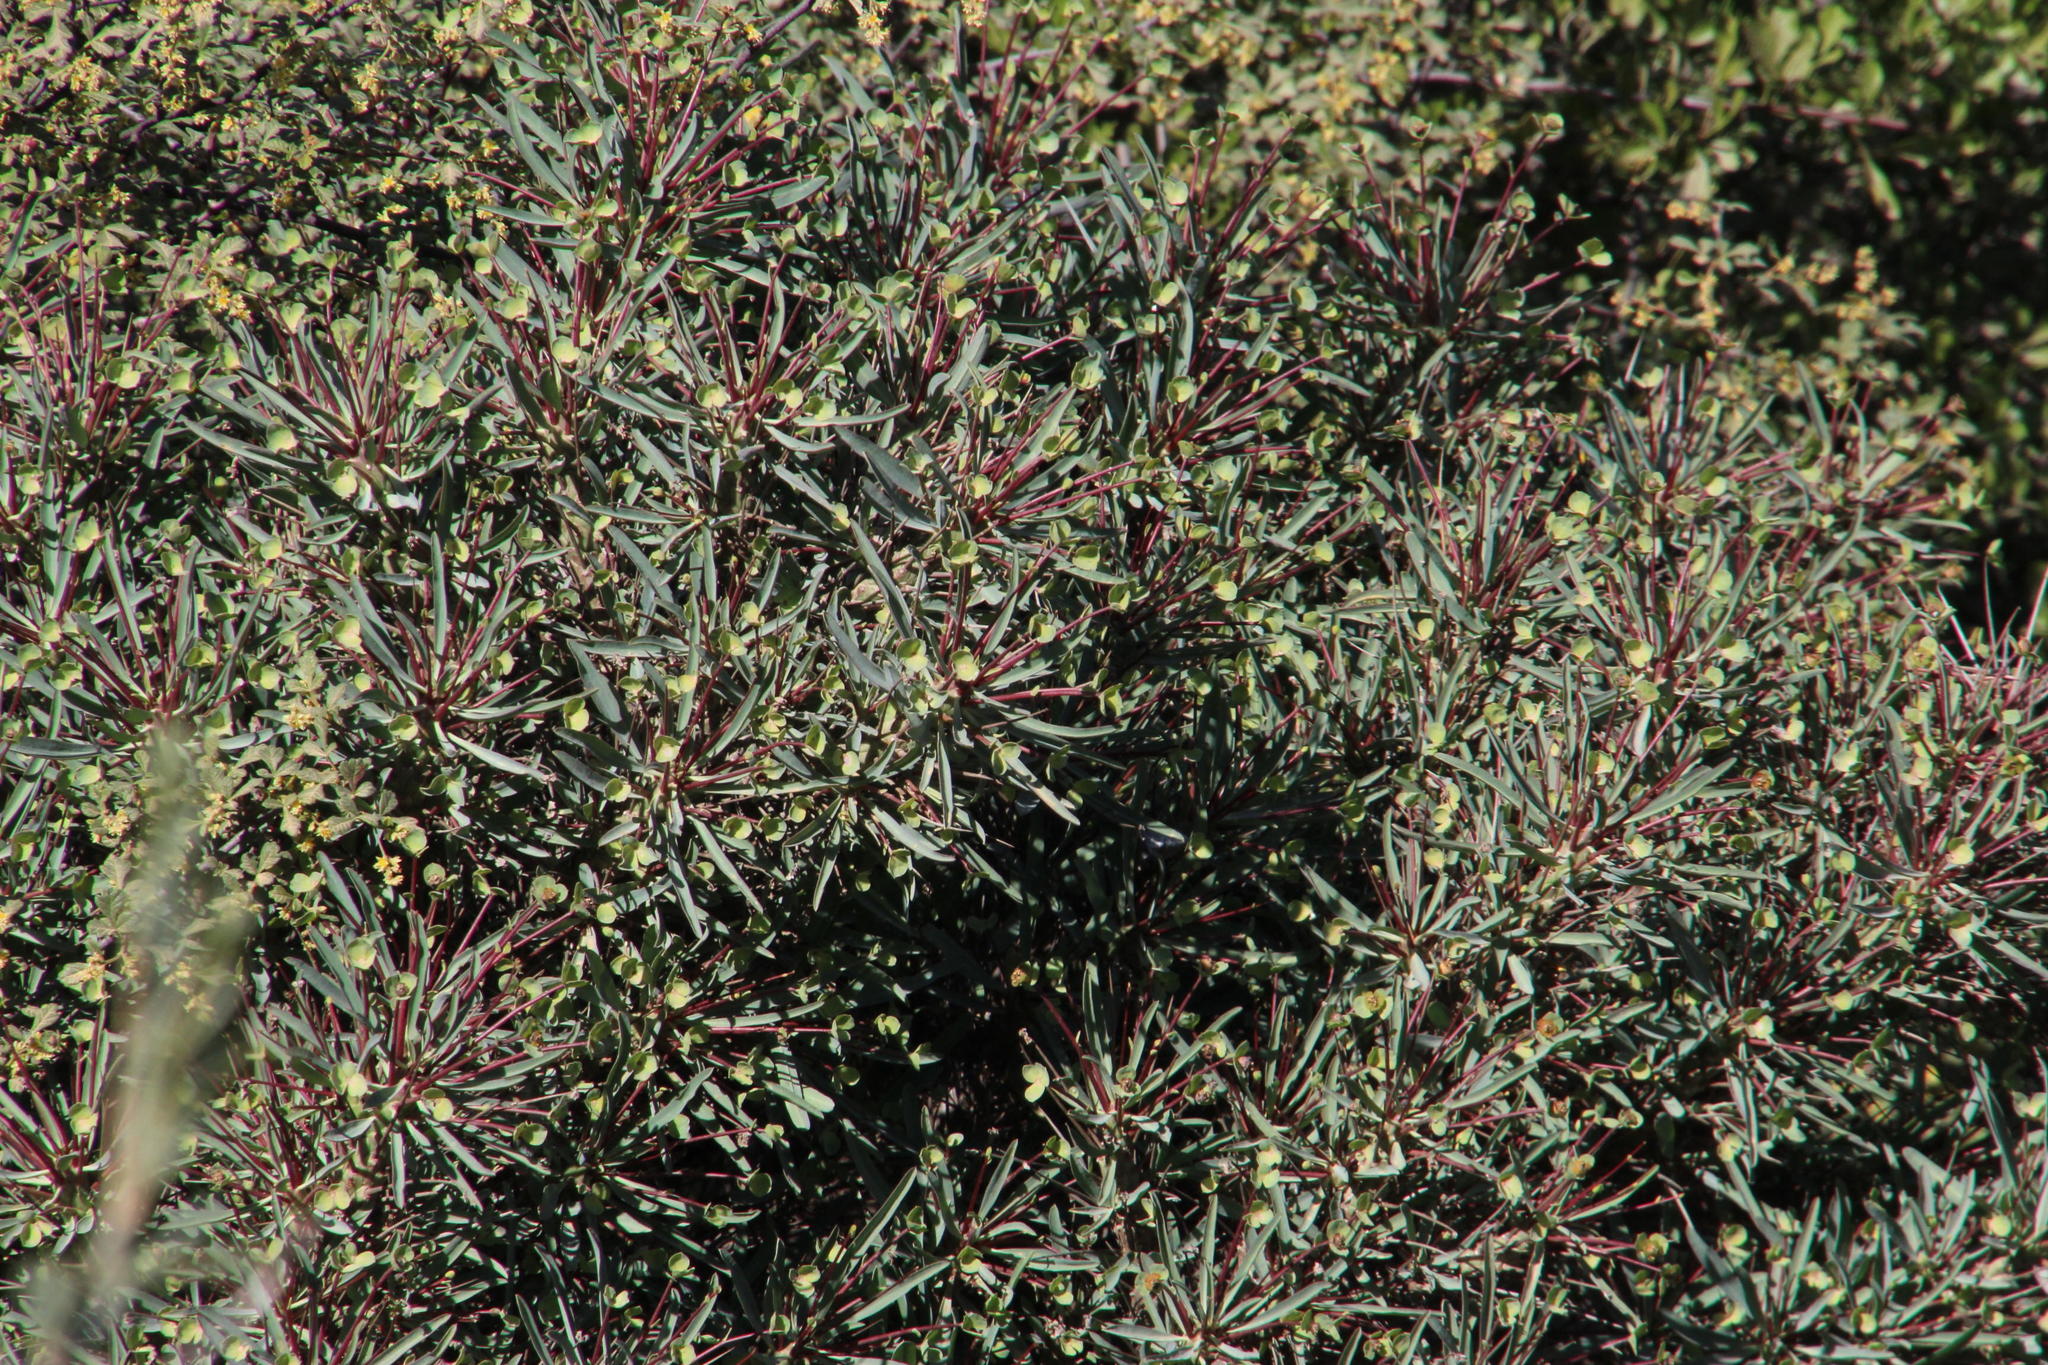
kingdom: Plantae
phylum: Tracheophyta
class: Magnoliopsida
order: Malpighiales
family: Euphorbiaceae
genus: Euphorbia
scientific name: Euphorbia loricata
